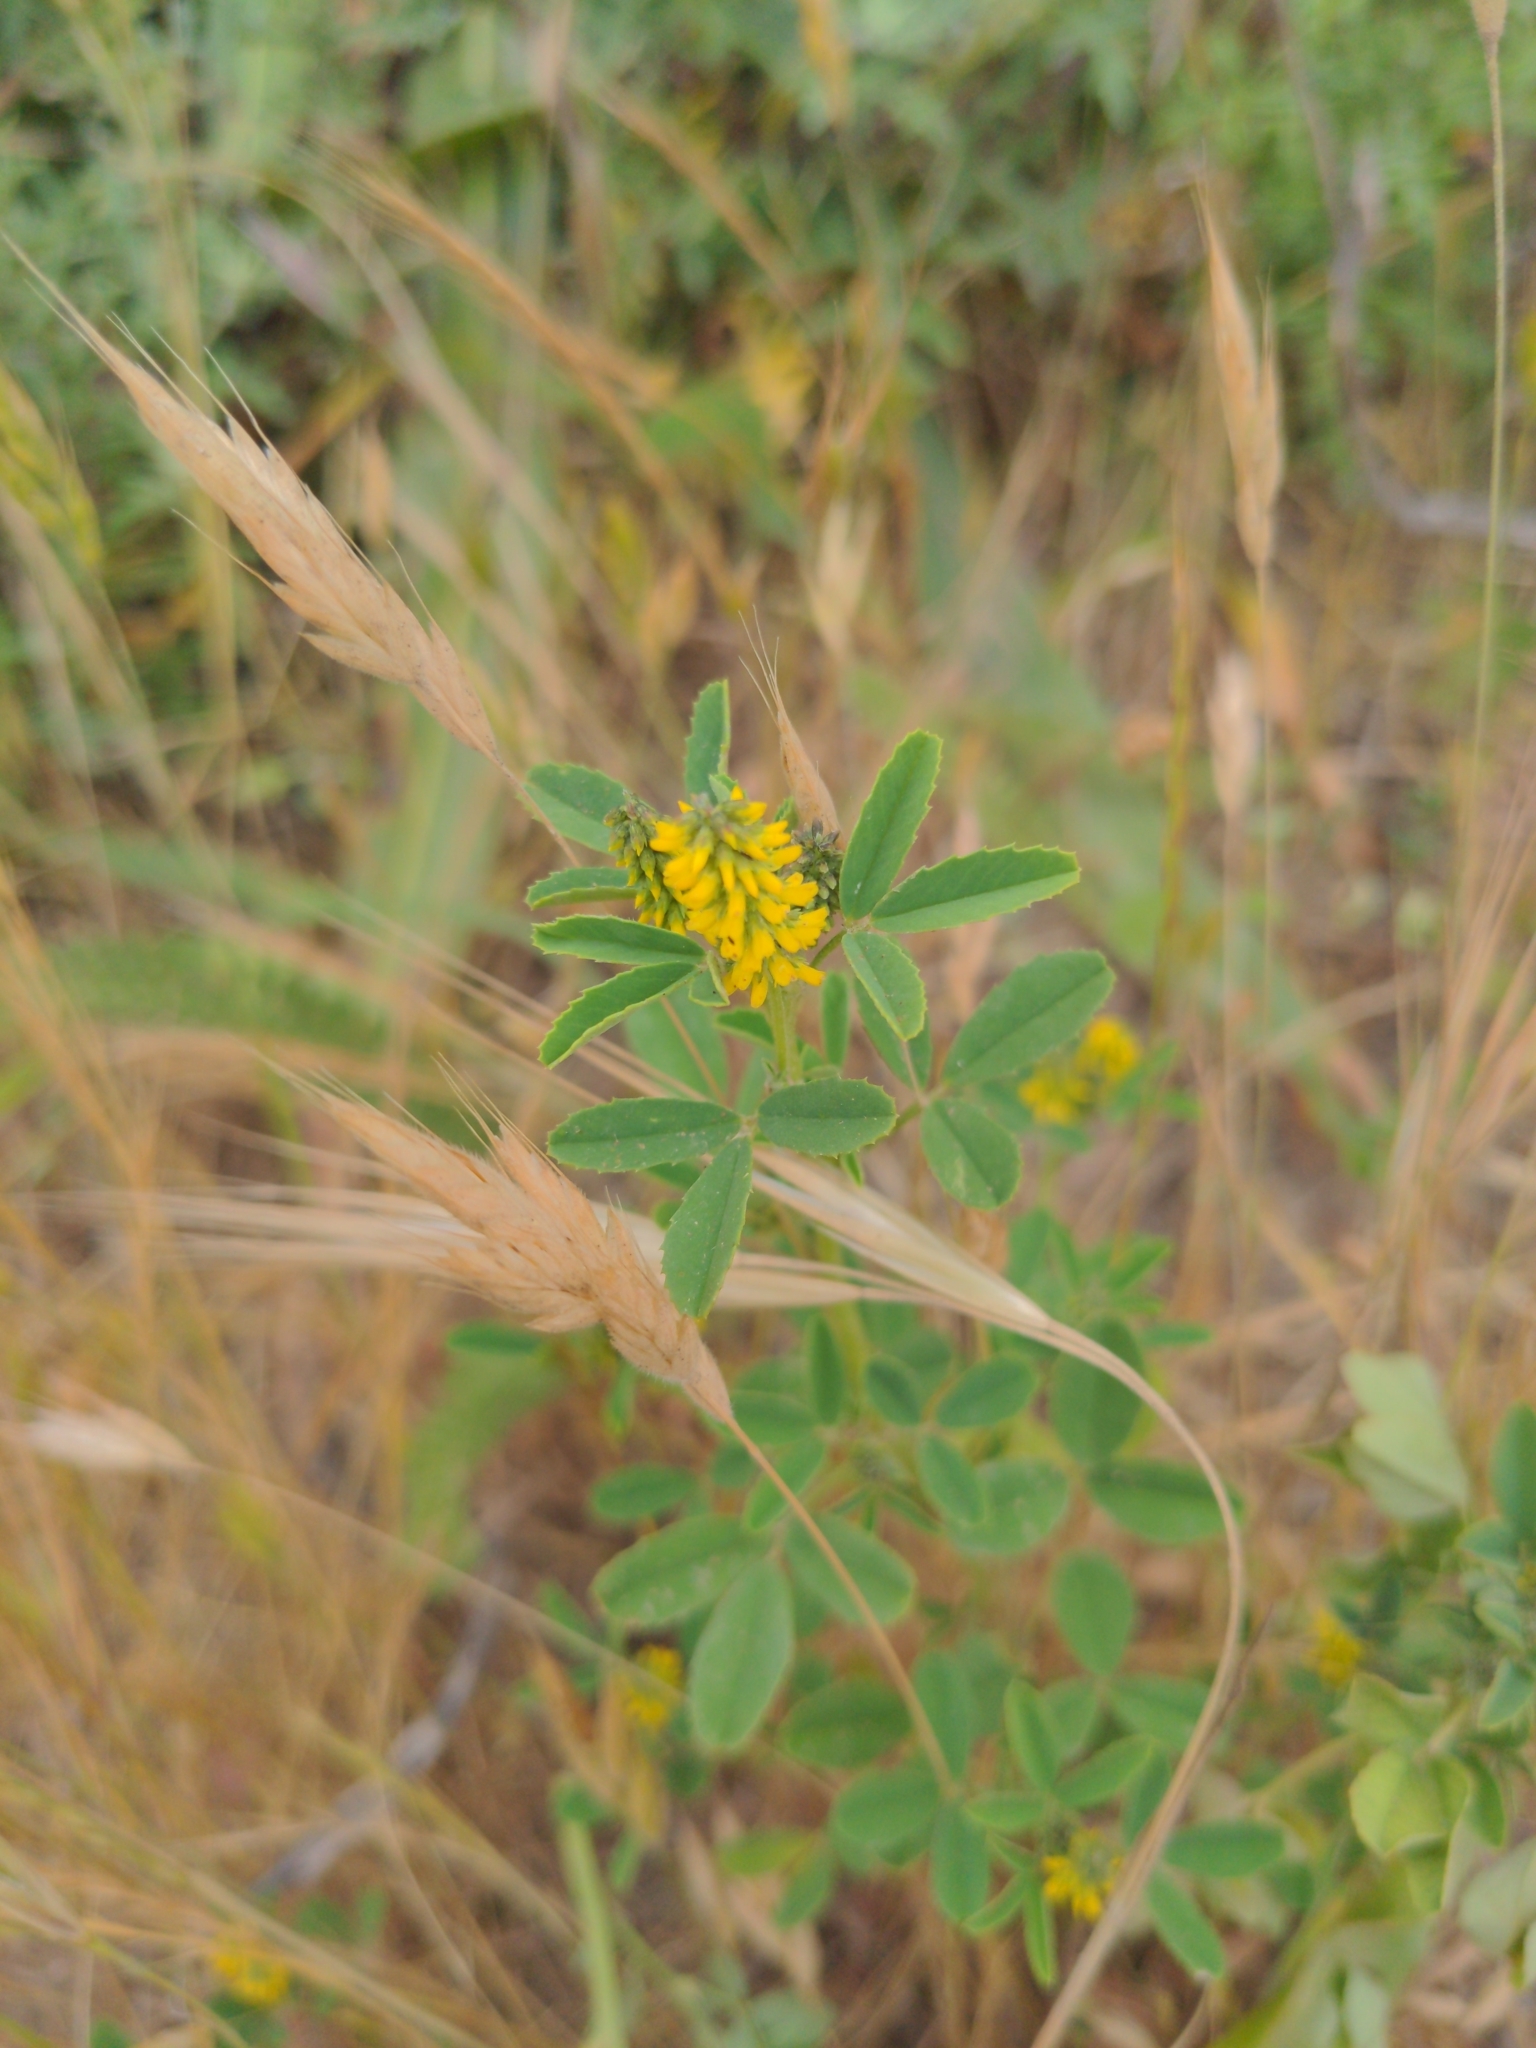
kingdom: Plantae
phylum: Tracheophyta
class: Magnoliopsida
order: Fabales
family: Fabaceae
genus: Melilotus
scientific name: Melilotus indicus
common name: Small melilot
